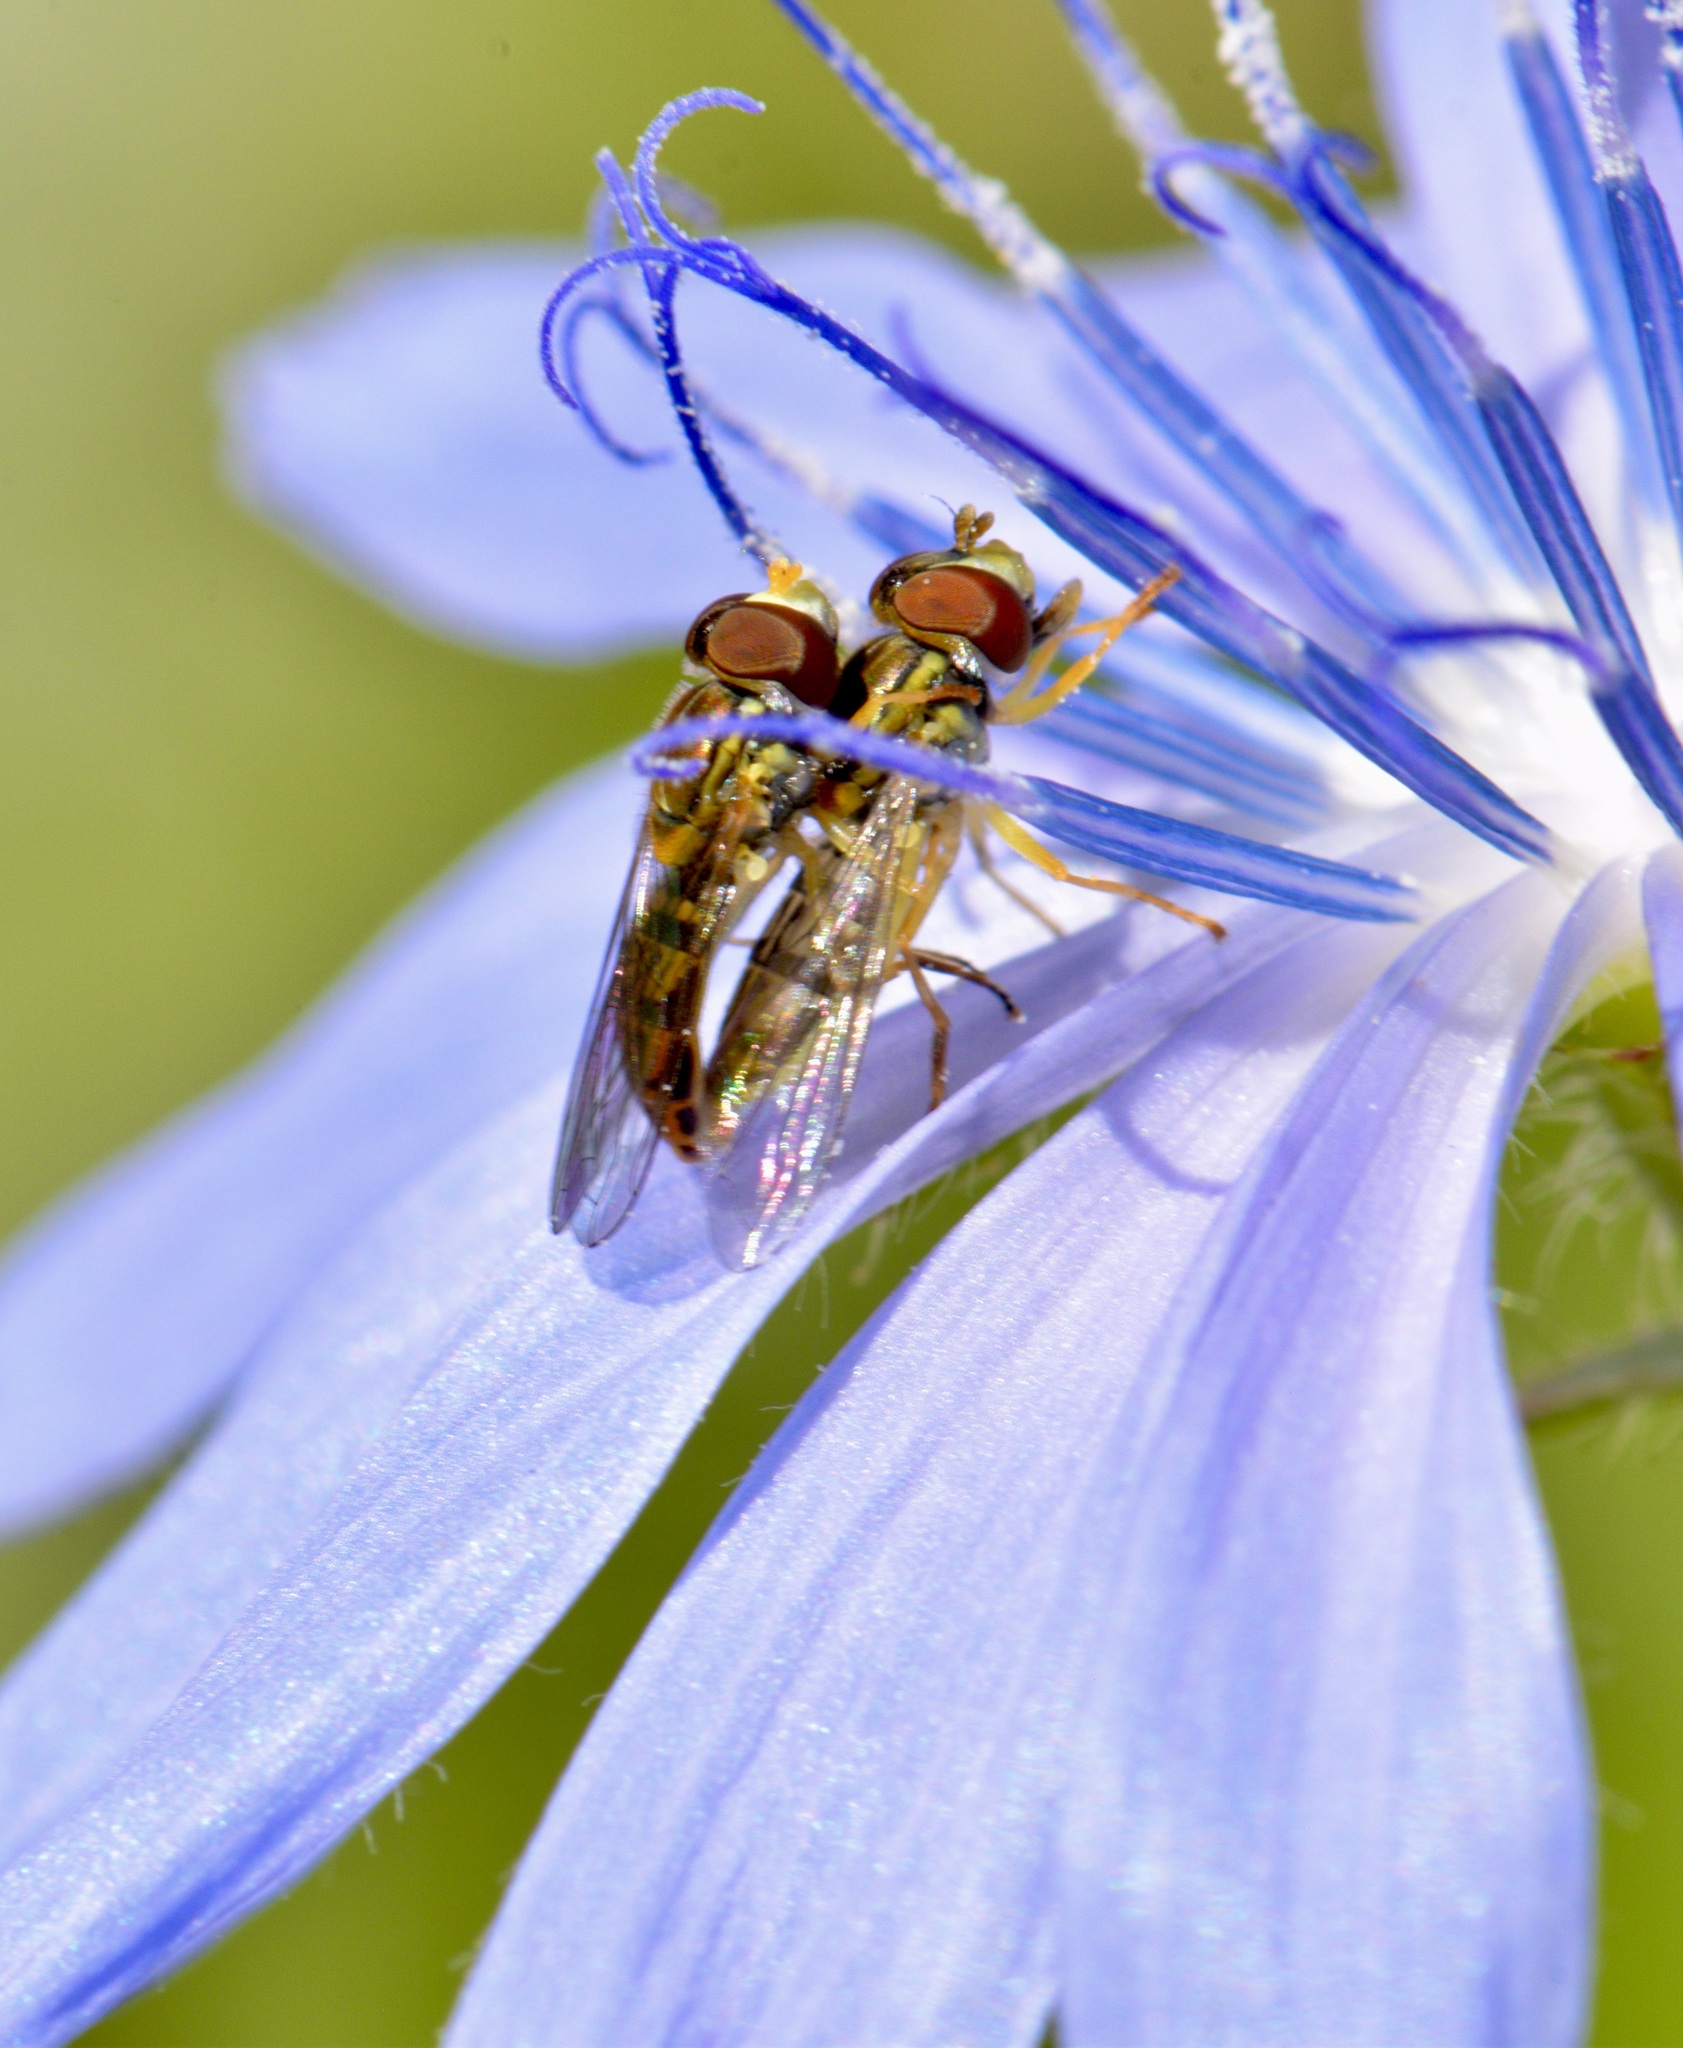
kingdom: Animalia
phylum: Arthropoda
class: Insecta
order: Diptera
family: Syrphidae
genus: Toxomerus
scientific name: Toxomerus marginatus
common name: Syrphid fly
